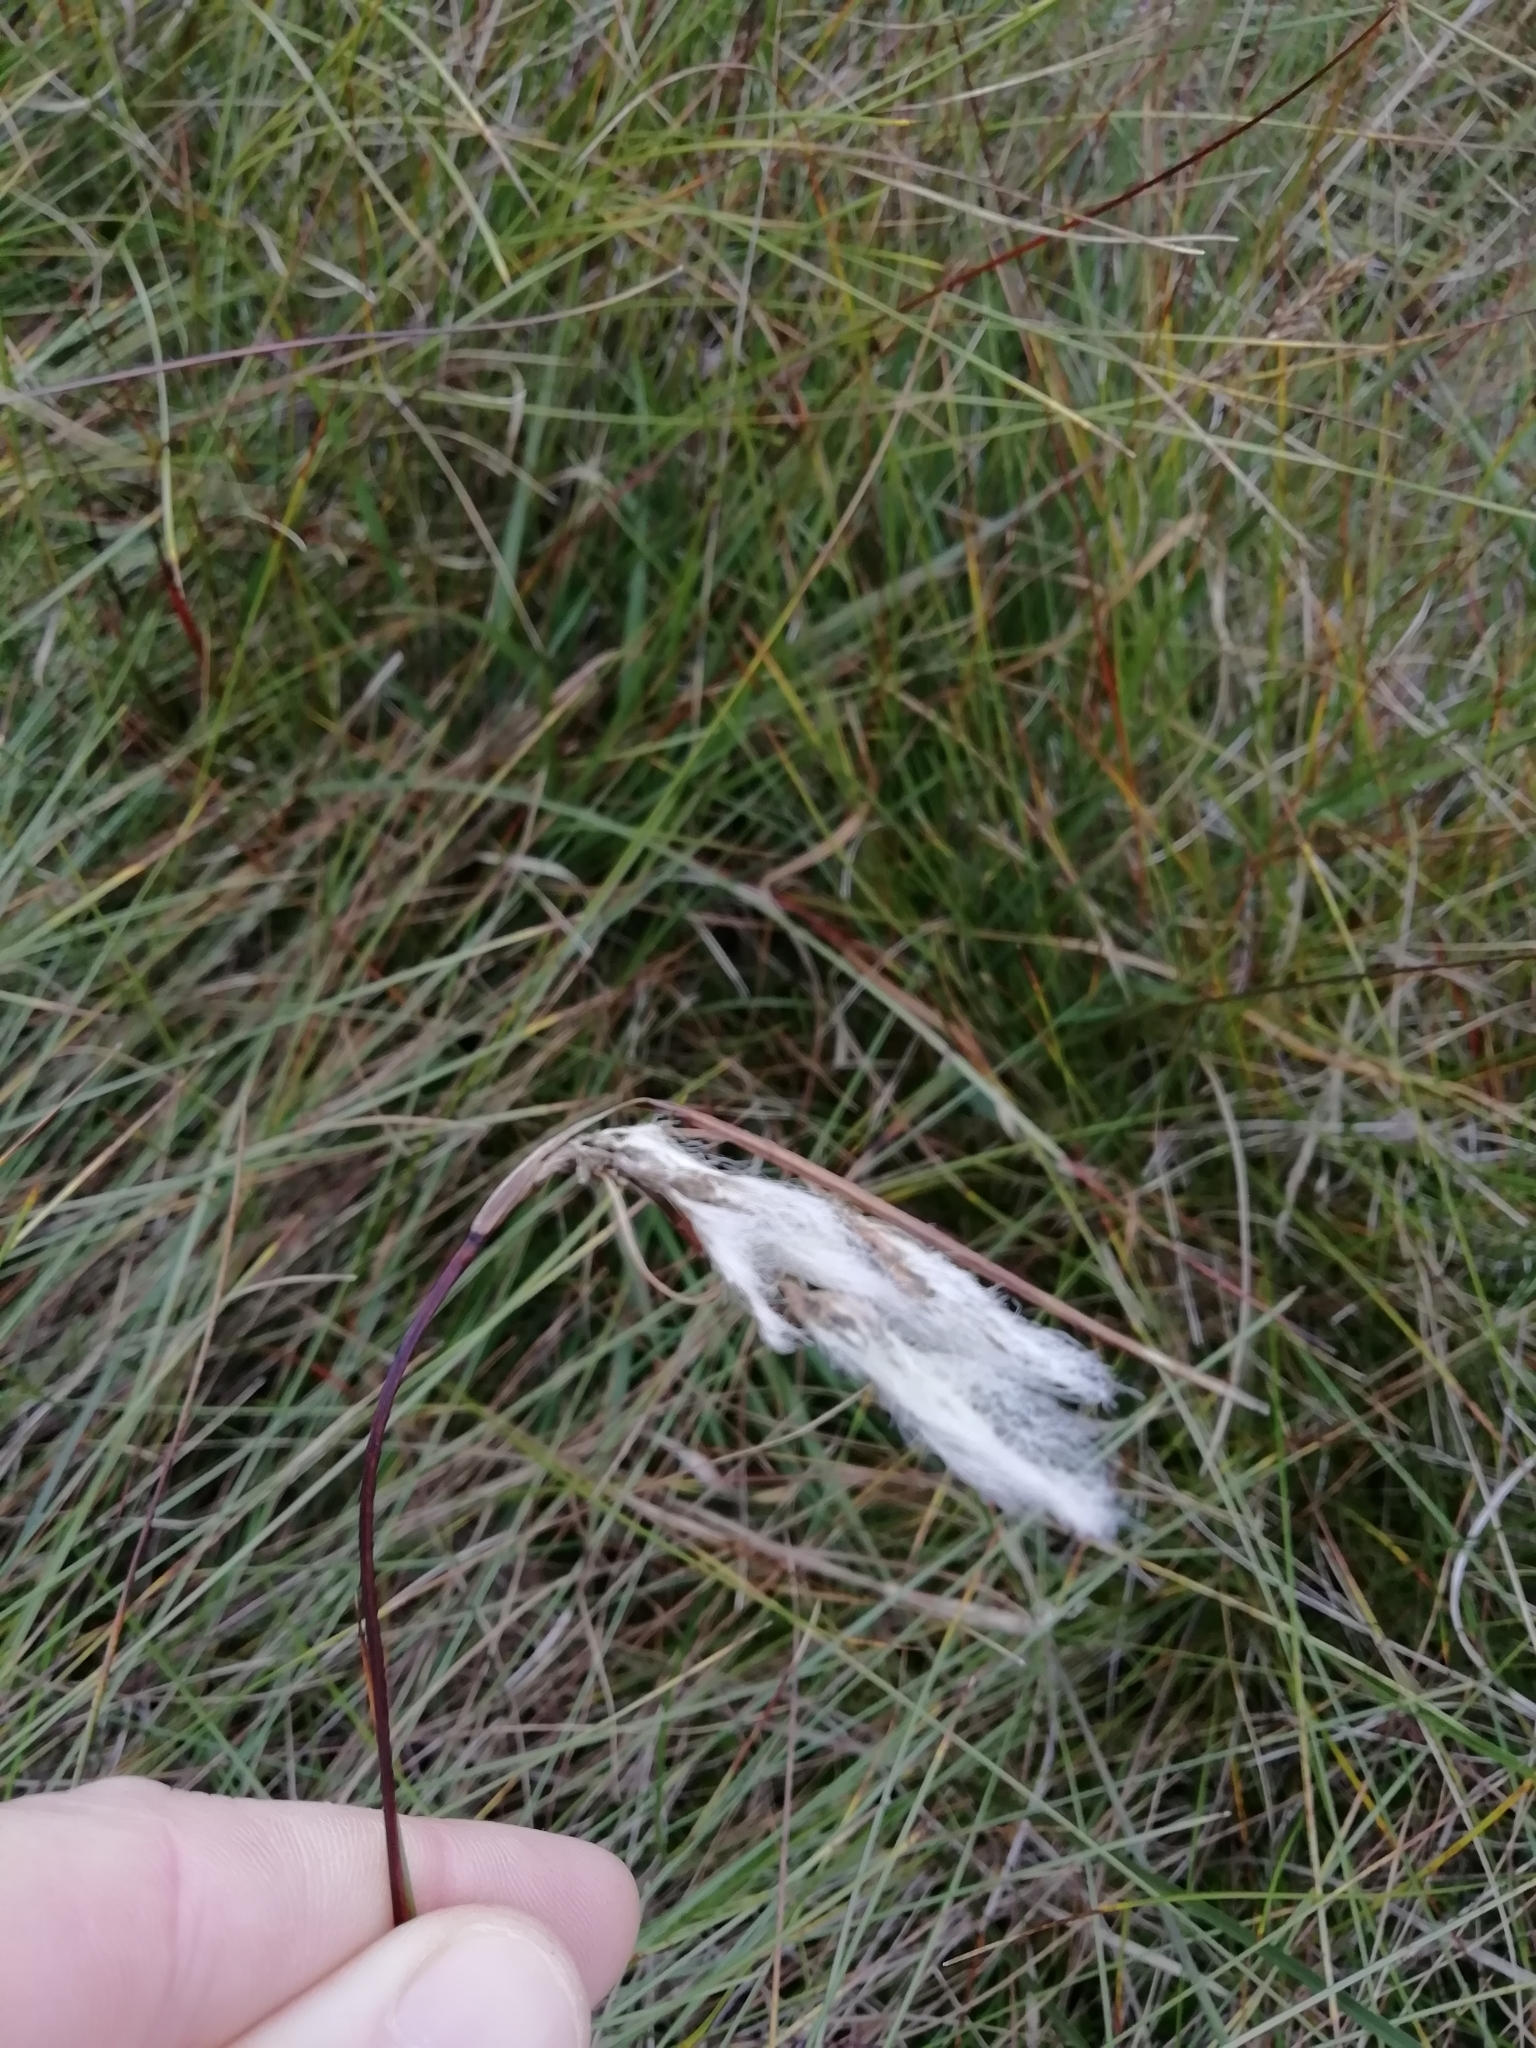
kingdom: Plantae
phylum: Tracheophyta
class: Liliopsida
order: Poales
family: Cyperaceae
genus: Eriophorum
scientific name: Eriophorum angustifolium
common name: Common cottongrass
